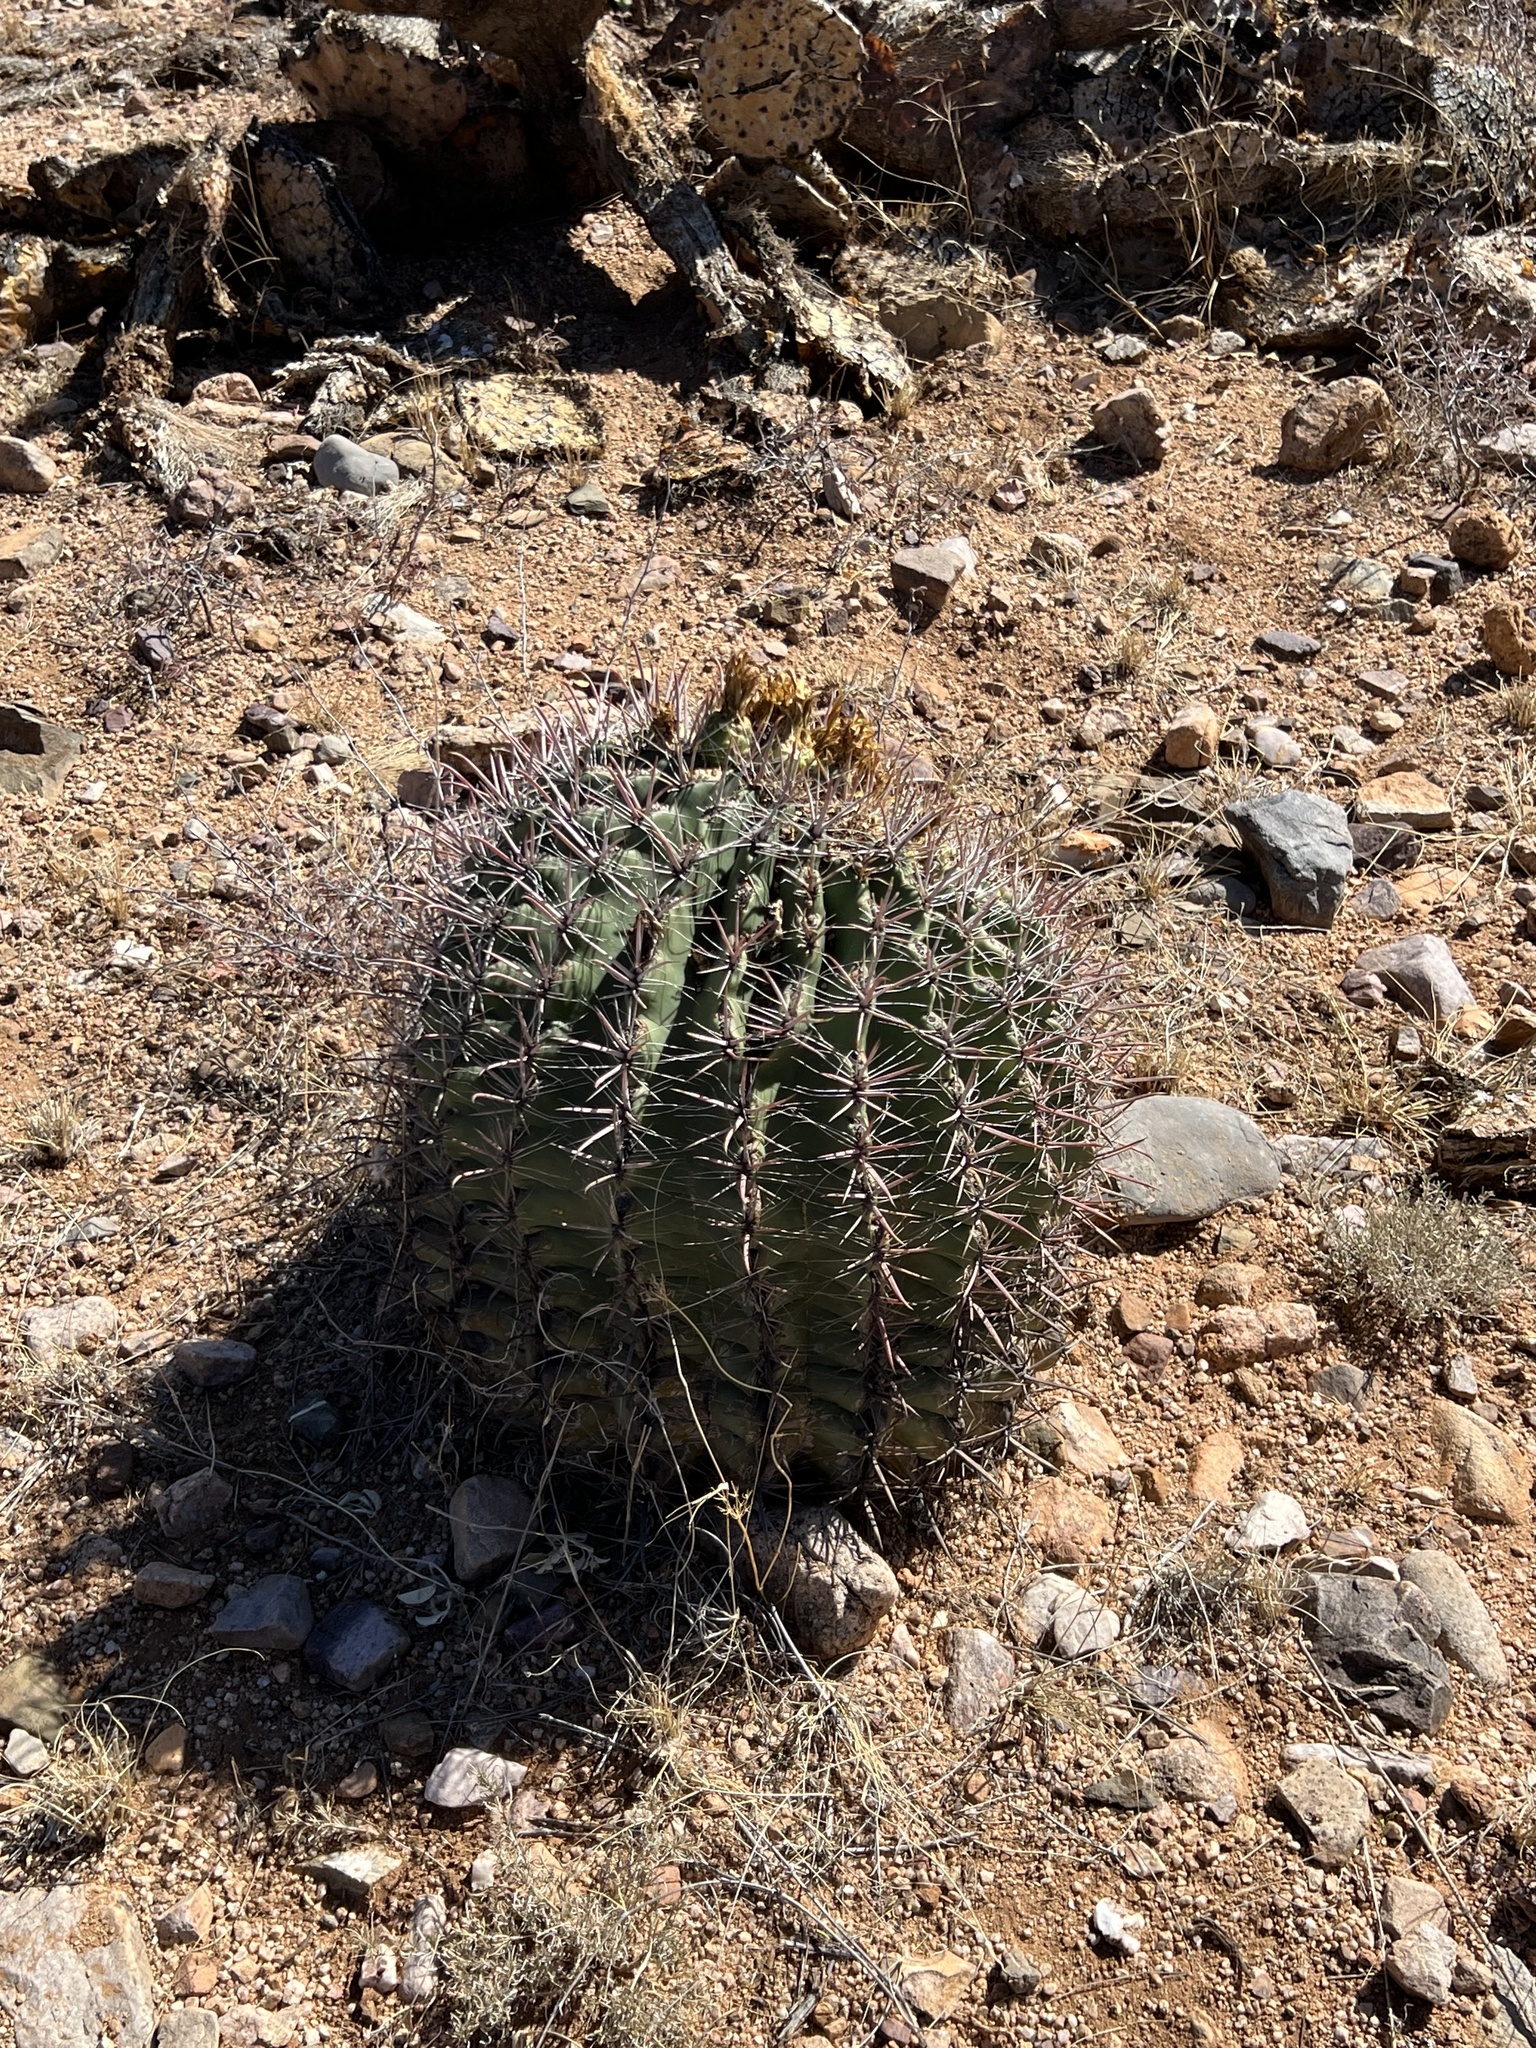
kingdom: Plantae
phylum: Tracheophyta
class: Magnoliopsida
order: Caryophyllales
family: Cactaceae
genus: Ferocactus
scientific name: Ferocactus wislizeni
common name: Candy barrel cactus
